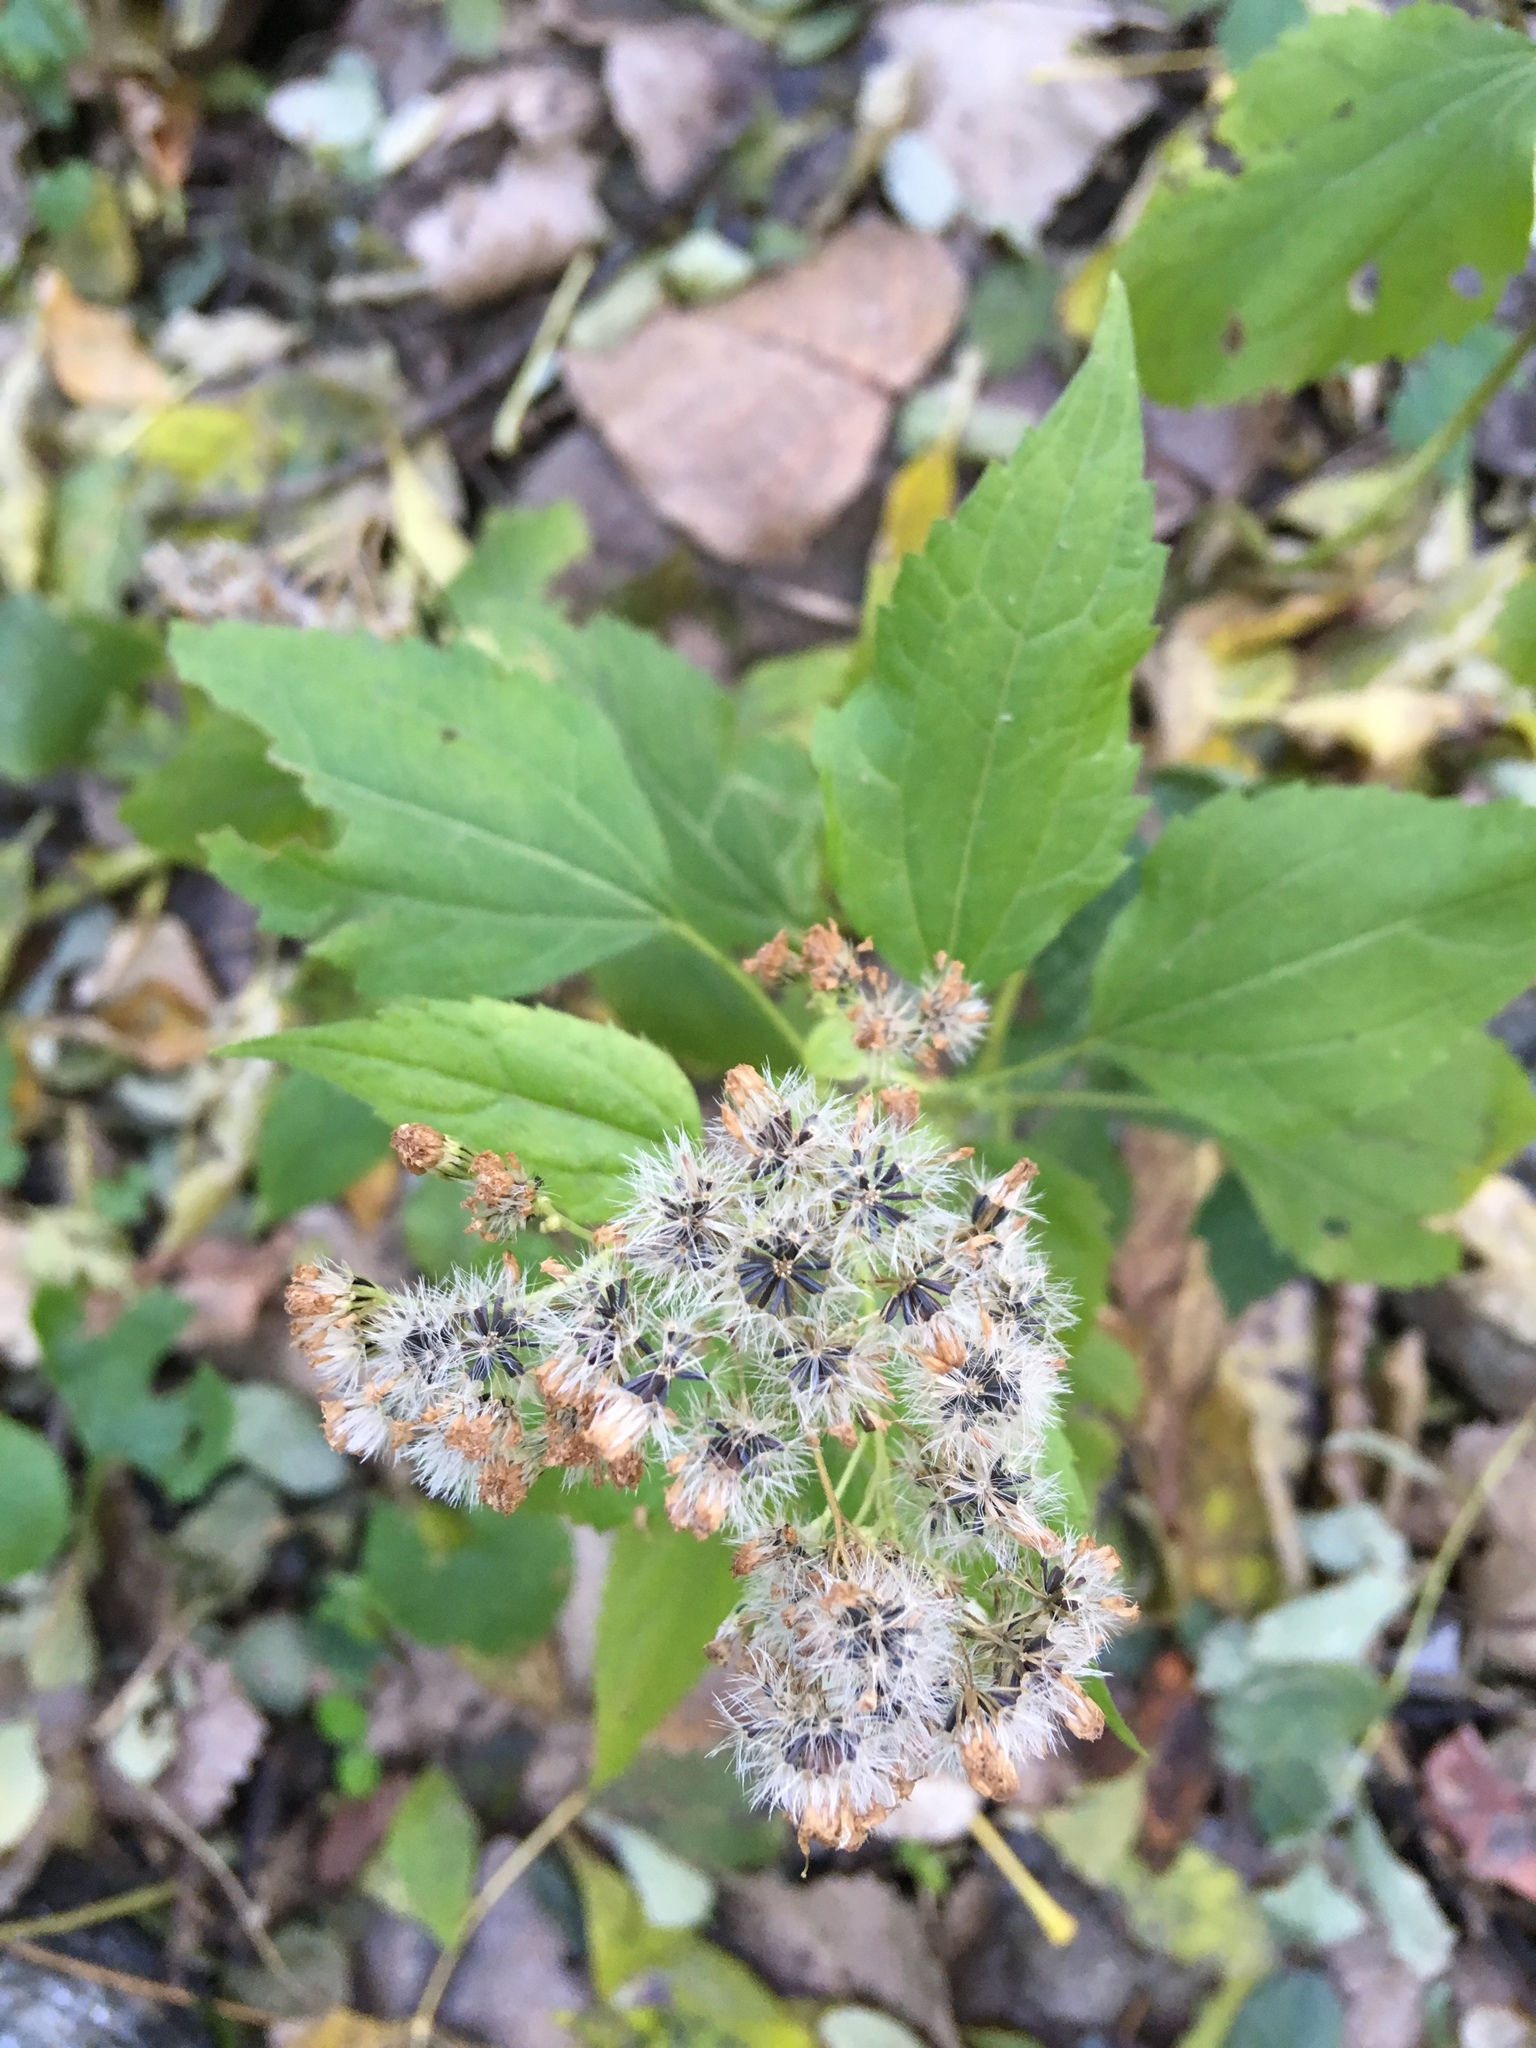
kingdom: Plantae
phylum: Tracheophyta
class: Magnoliopsida
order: Asterales
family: Asteraceae
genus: Ageratina
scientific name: Ageratina altissima
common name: White snakeroot
